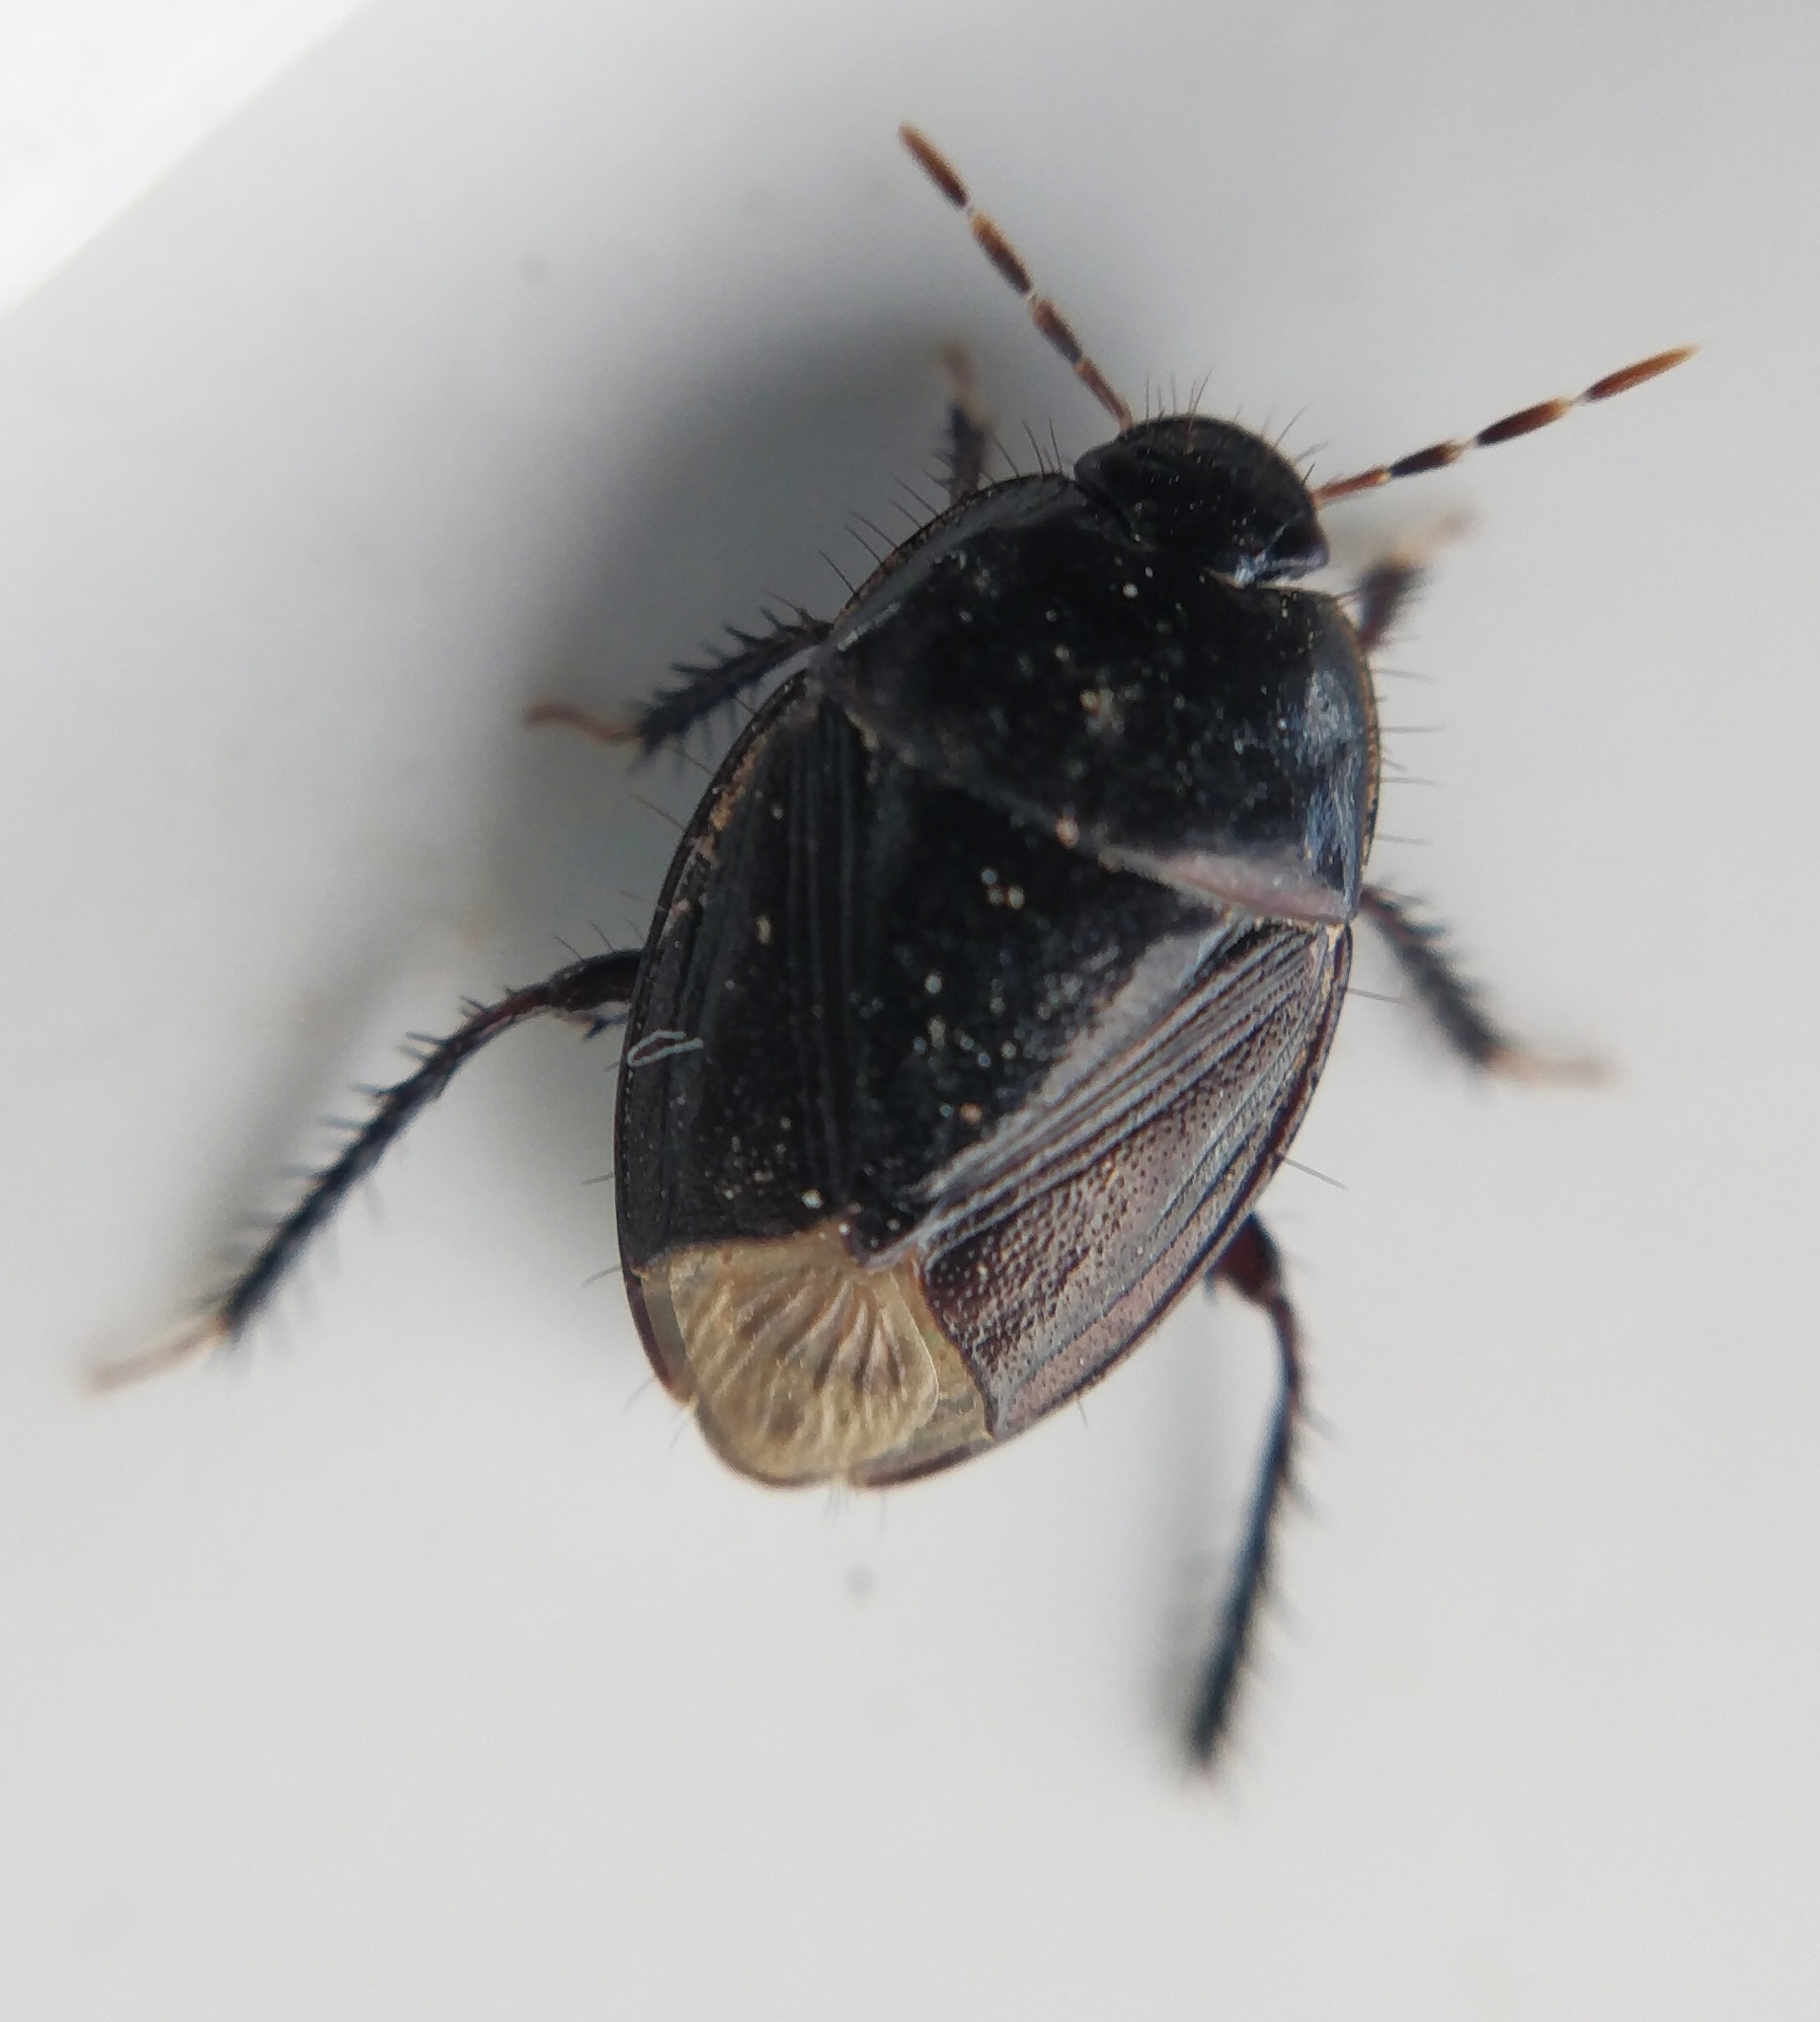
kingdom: Animalia
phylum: Arthropoda
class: Insecta
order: Hemiptera
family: Cydnidae
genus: Macroscytus
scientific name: Macroscytus brunneus
